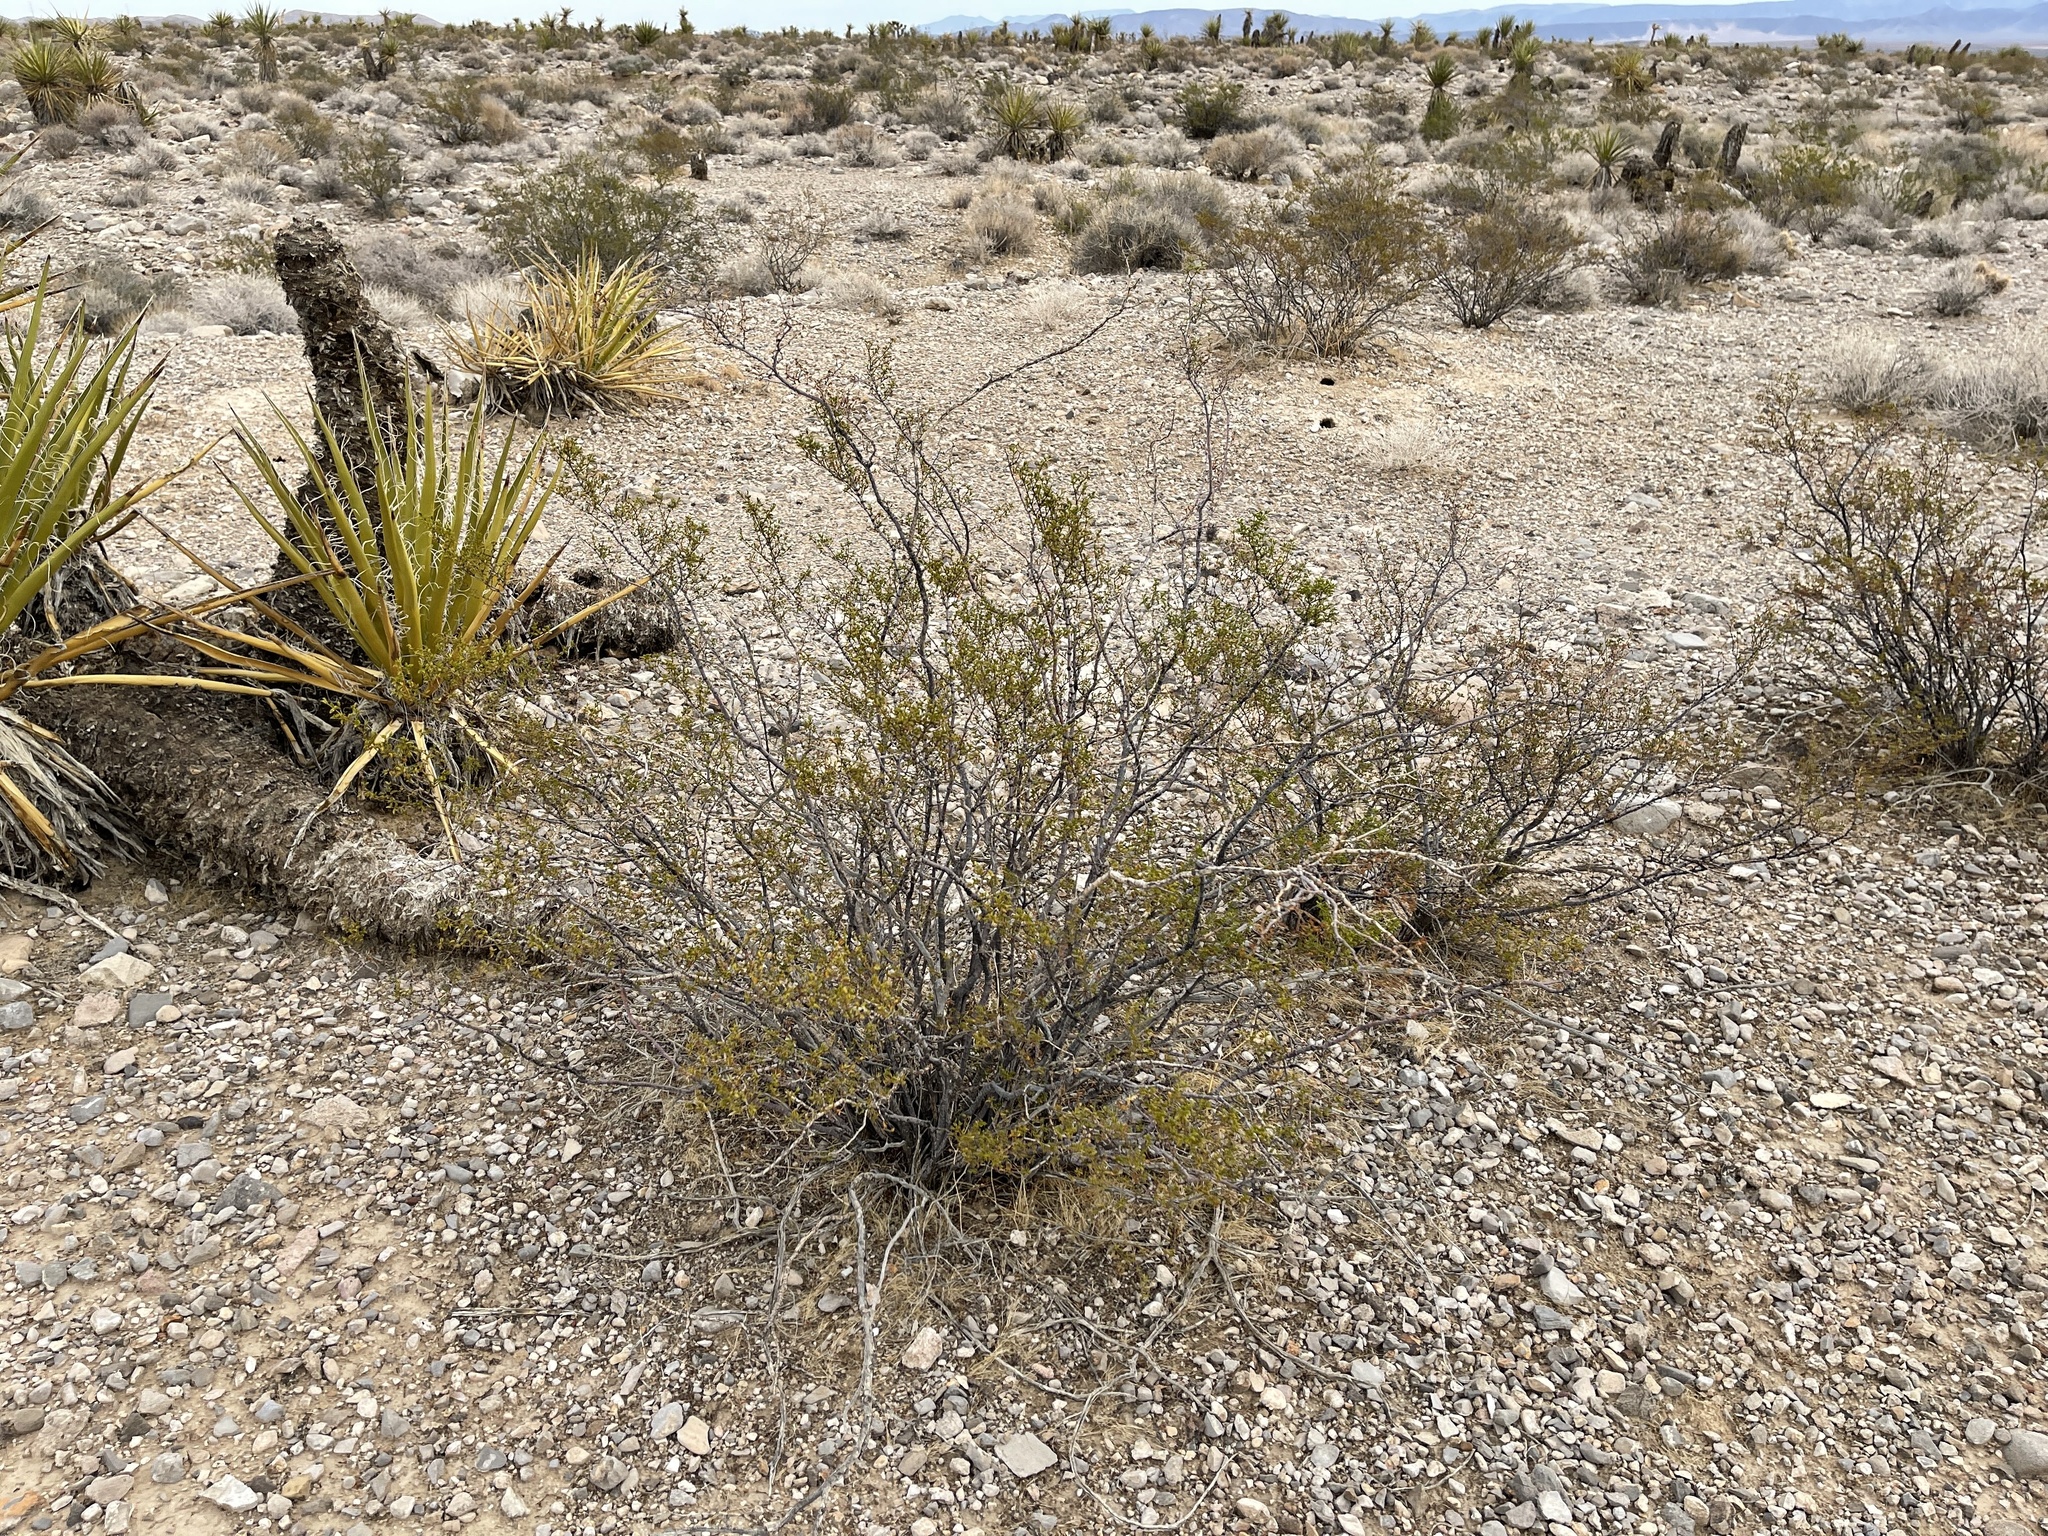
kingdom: Plantae
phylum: Tracheophyta
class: Magnoliopsida
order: Zygophyllales
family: Zygophyllaceae
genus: Larrea
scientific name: Larrea tridentata
